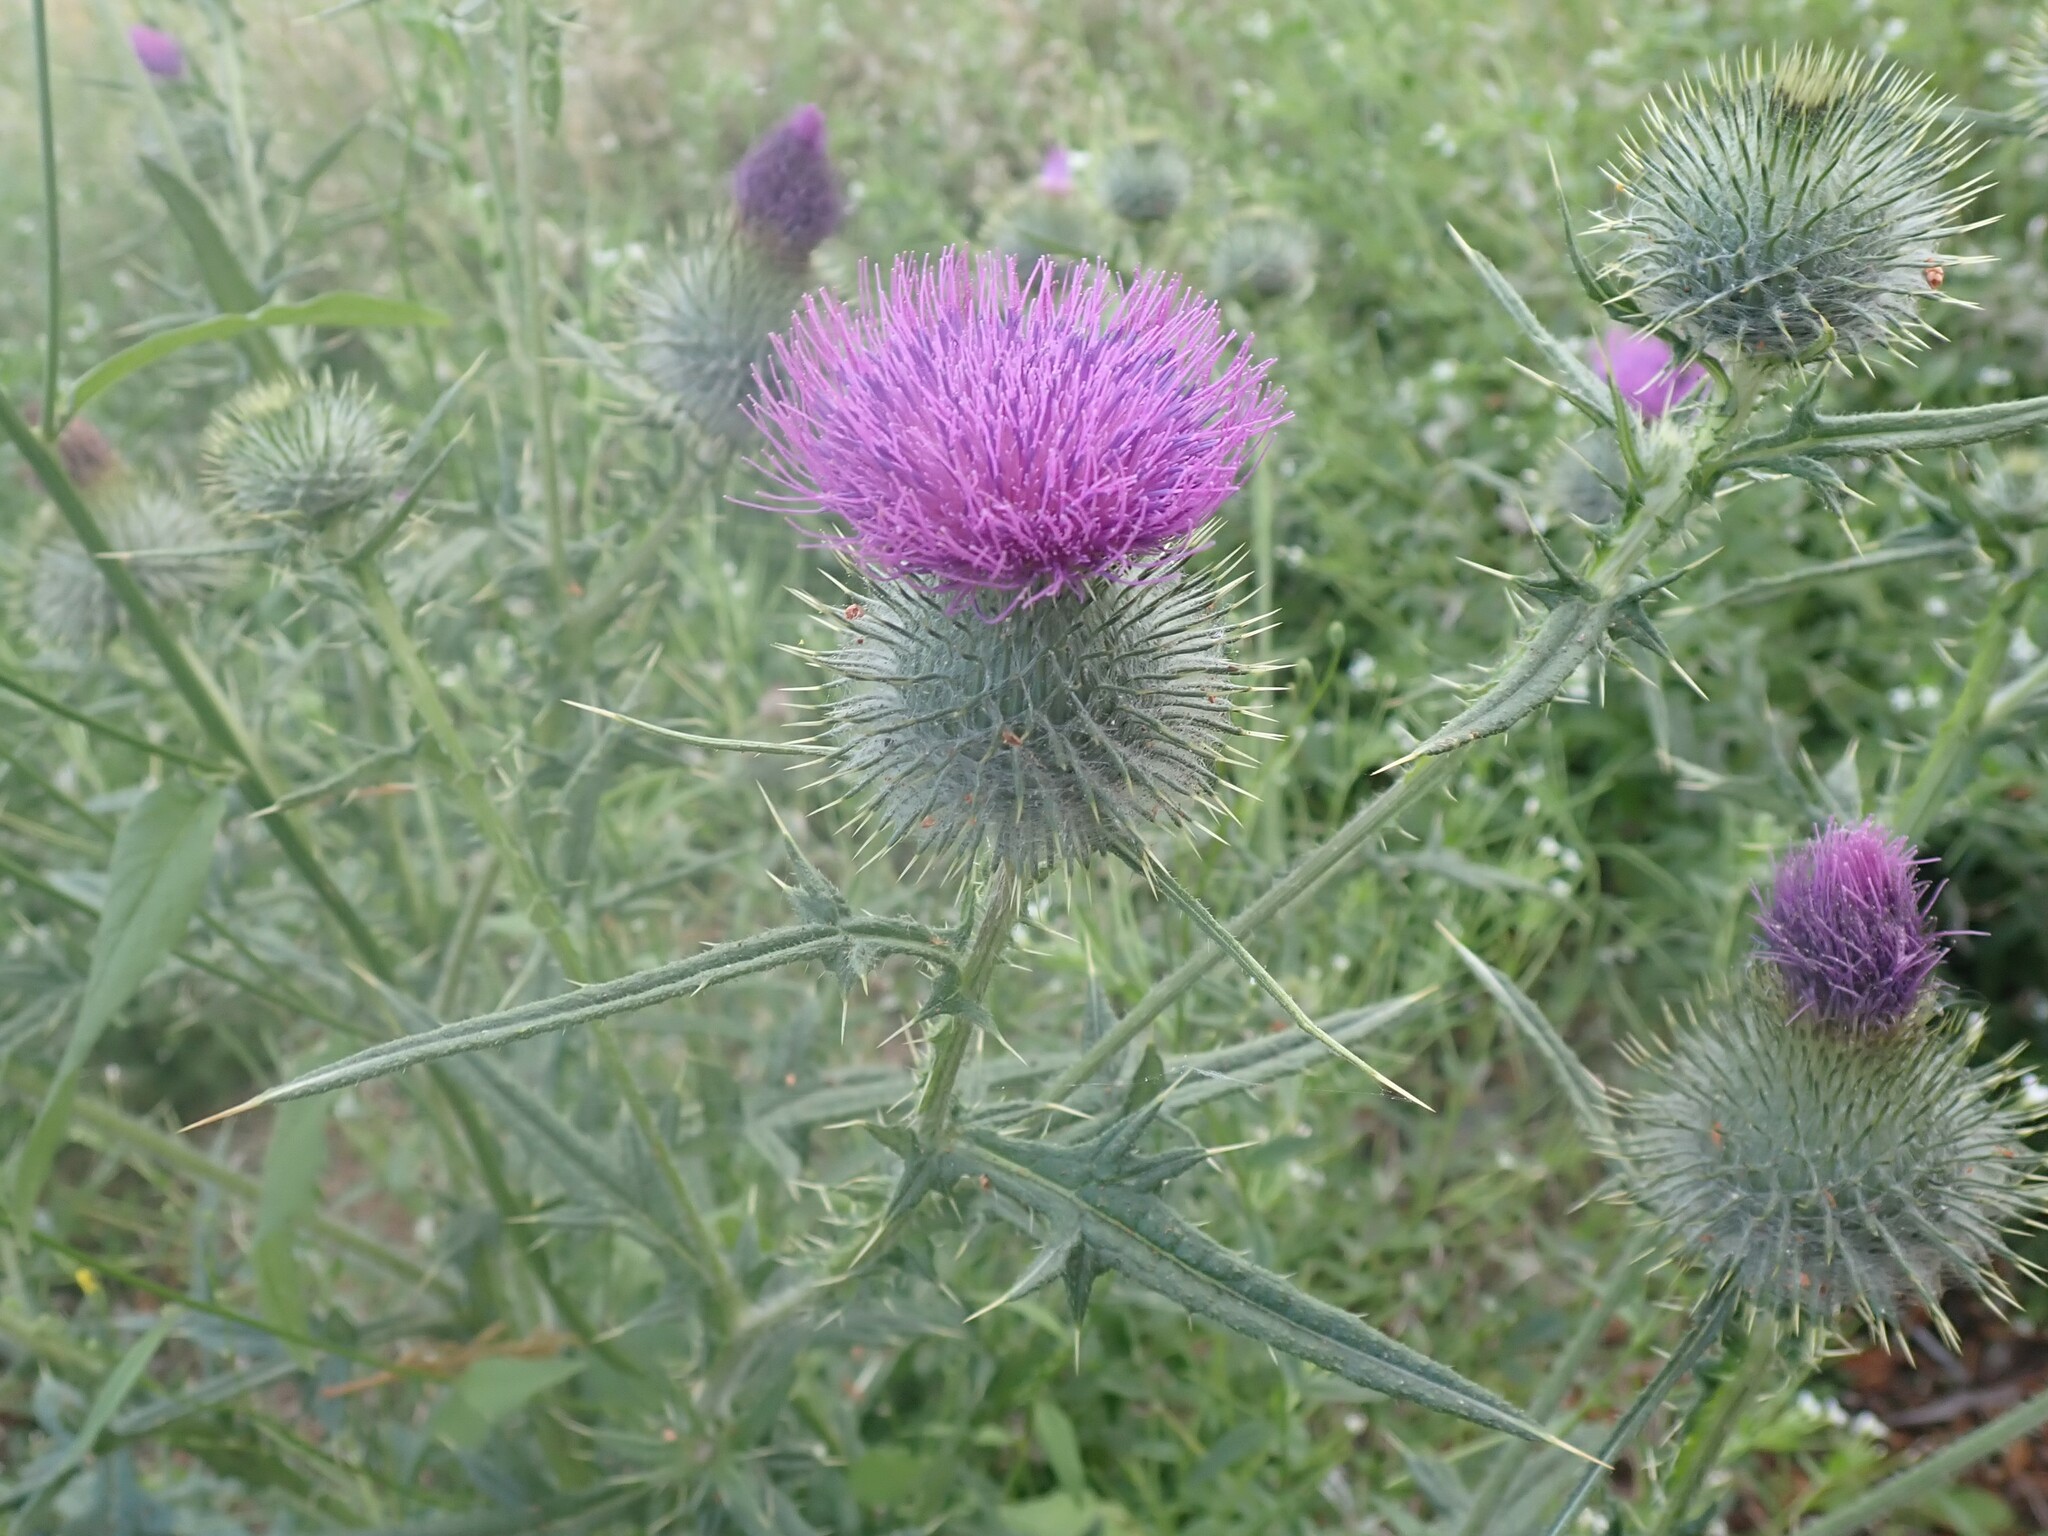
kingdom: Plantae
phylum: Tracheophyta
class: Magnoliopsida
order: Asterales
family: Asteraceae
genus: Cirsium
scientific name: Cirsium vulgare
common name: Bull thistle
